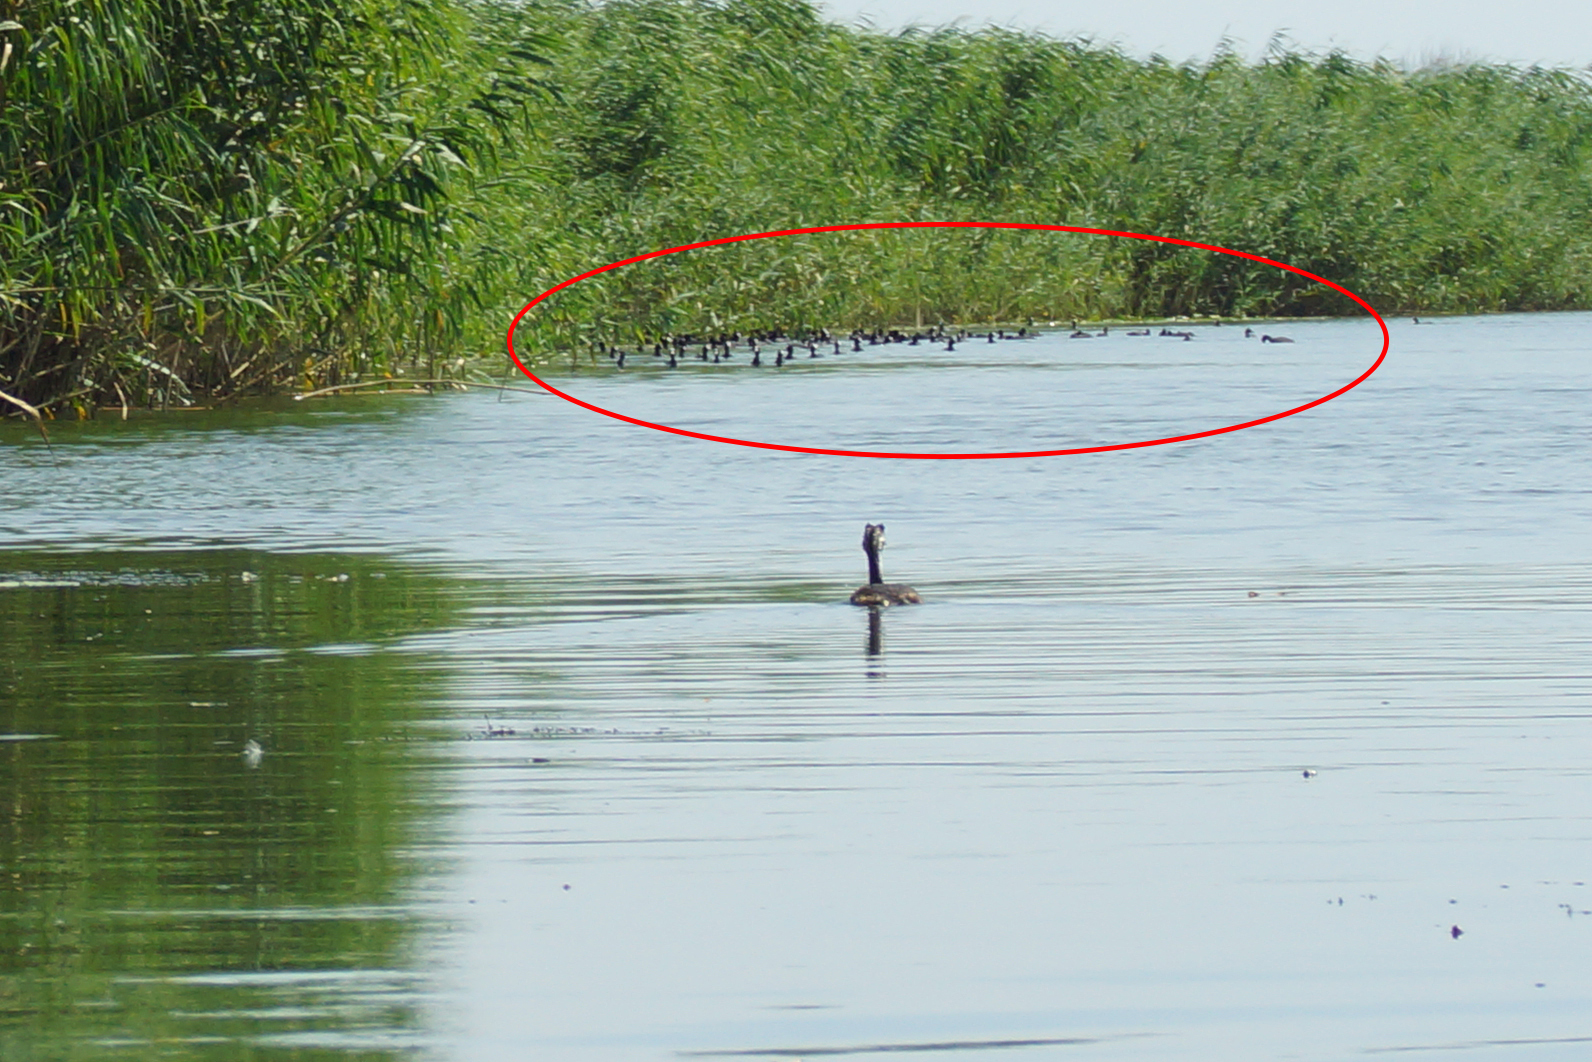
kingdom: Animalia
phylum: Chordata
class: Aves
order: Gruiformes
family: Rallidae
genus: Fulica
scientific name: Fulica atra
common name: Eurasian coot
